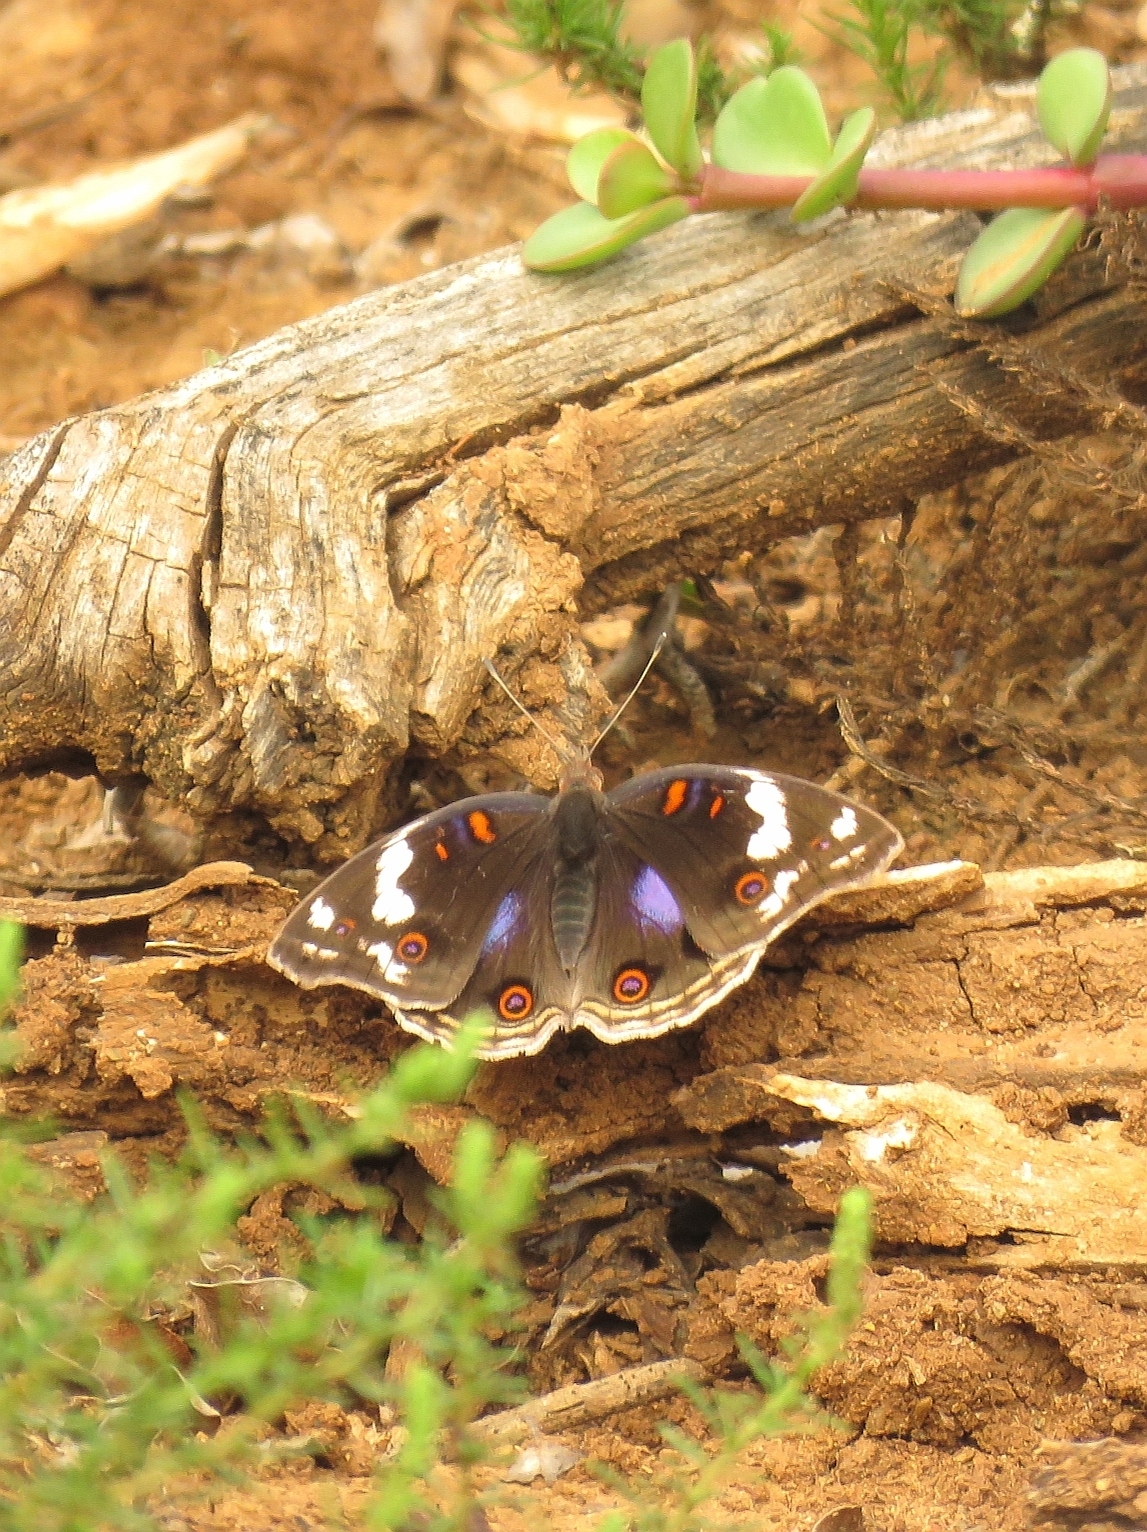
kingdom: Animalia
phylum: Arthropoda
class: Insecta
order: Lepidoptera
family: Nymphalidae
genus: Junonia
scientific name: Junonia oenone
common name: Dark blue pansy
